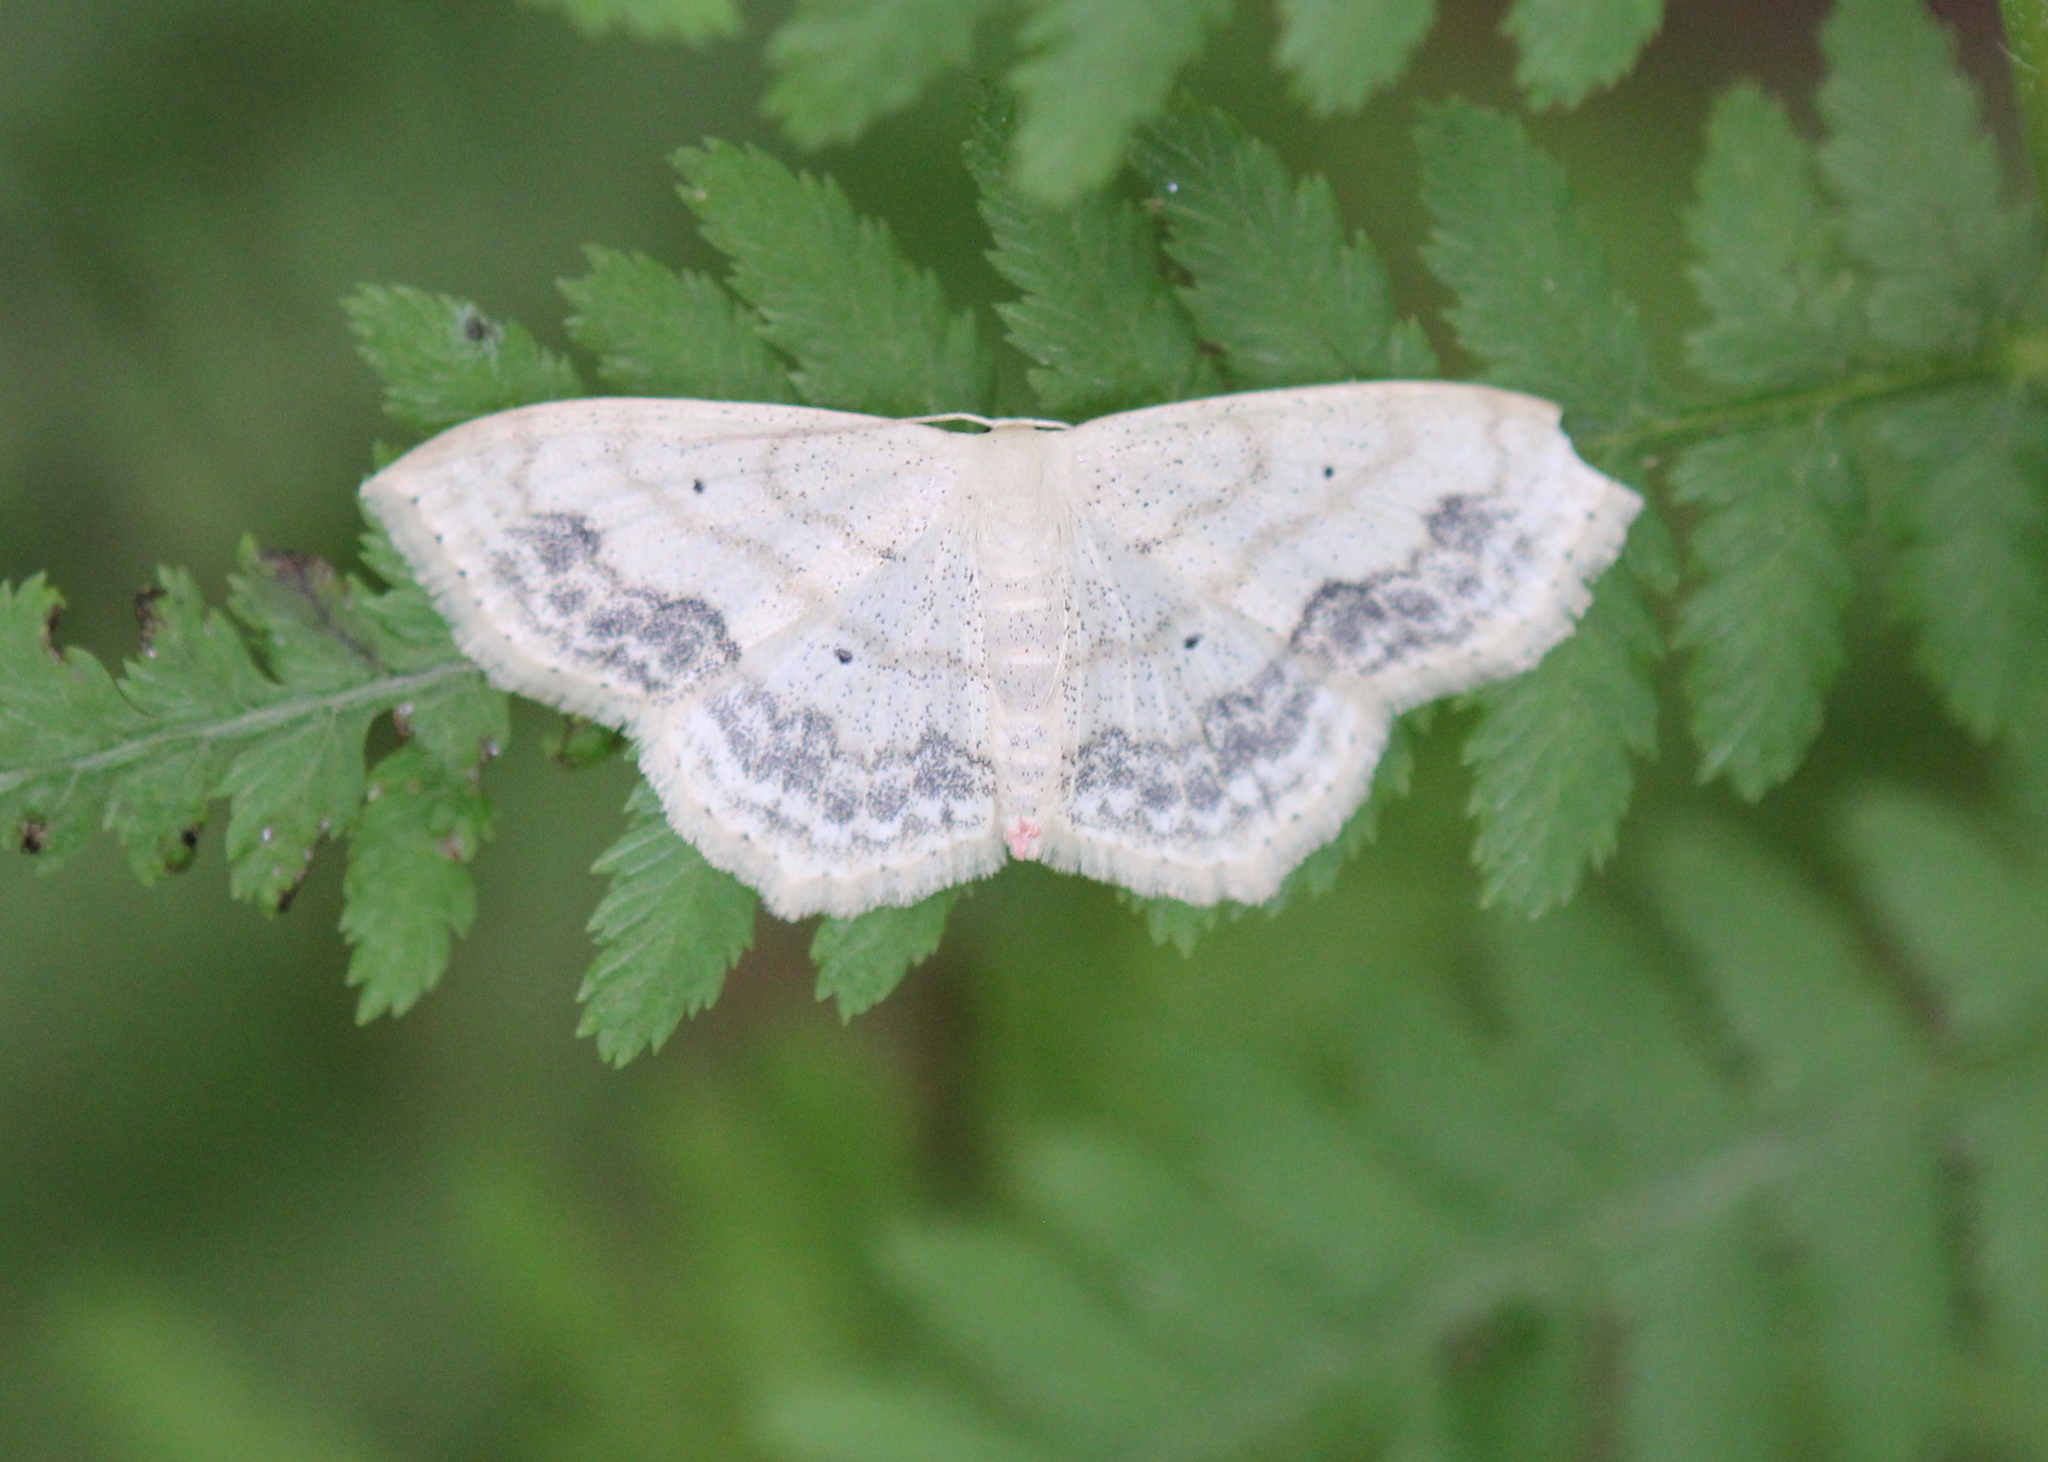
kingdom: Animalia
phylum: Arthropoda
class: Insecta
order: Lepidoptera
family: Geometridae
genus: Scopula
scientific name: Scopula limboundata
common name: Large lace border
